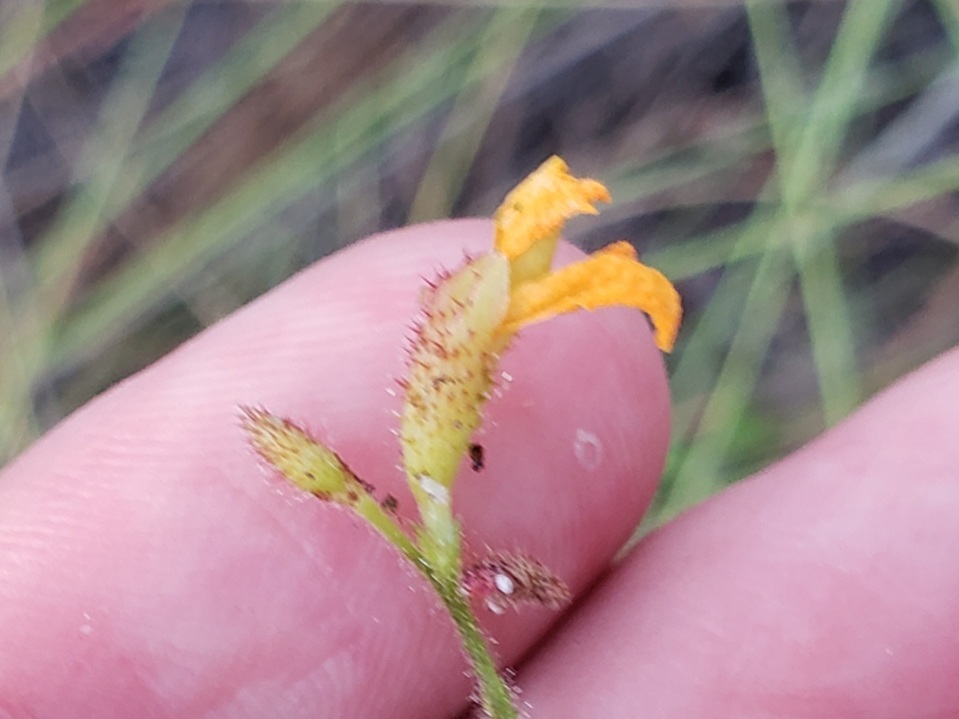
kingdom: Plantae
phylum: Tracheophyta
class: Magnoliopsida
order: Fabales
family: Fabaceae
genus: Chapmannia
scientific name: Chapmannia floridana
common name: Alicia
